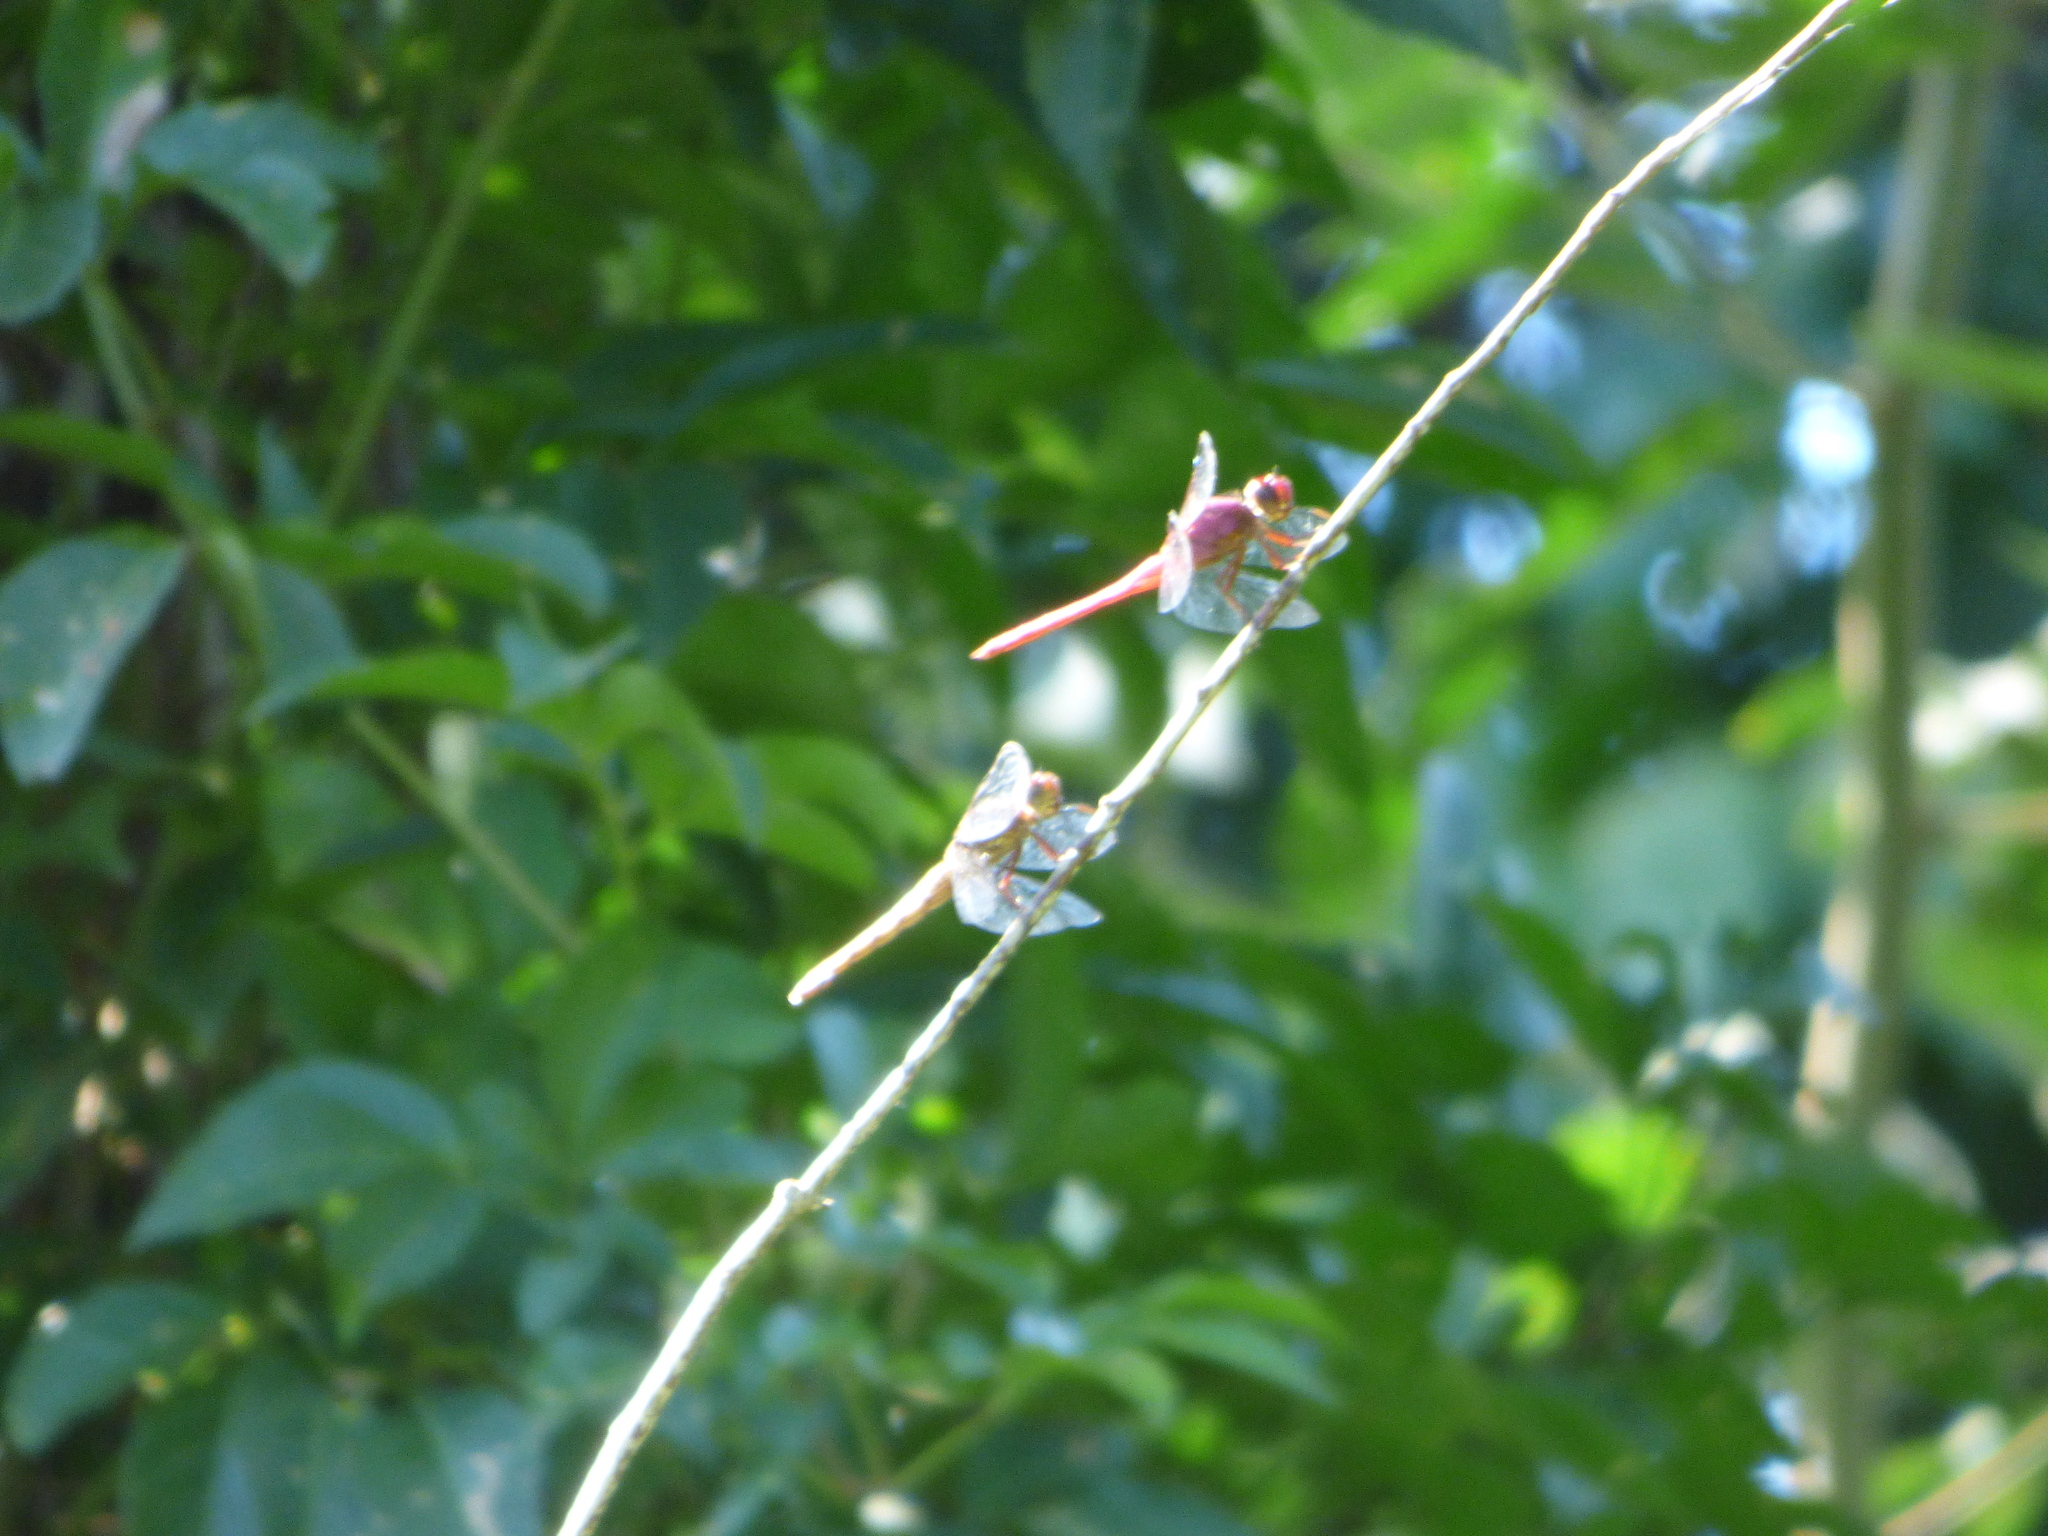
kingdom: Animalia
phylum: Arthropoda
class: Insecta
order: Odonata
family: Libellulidae
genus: Orthemis
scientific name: Orthemis discolor
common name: Carmine skimmer
